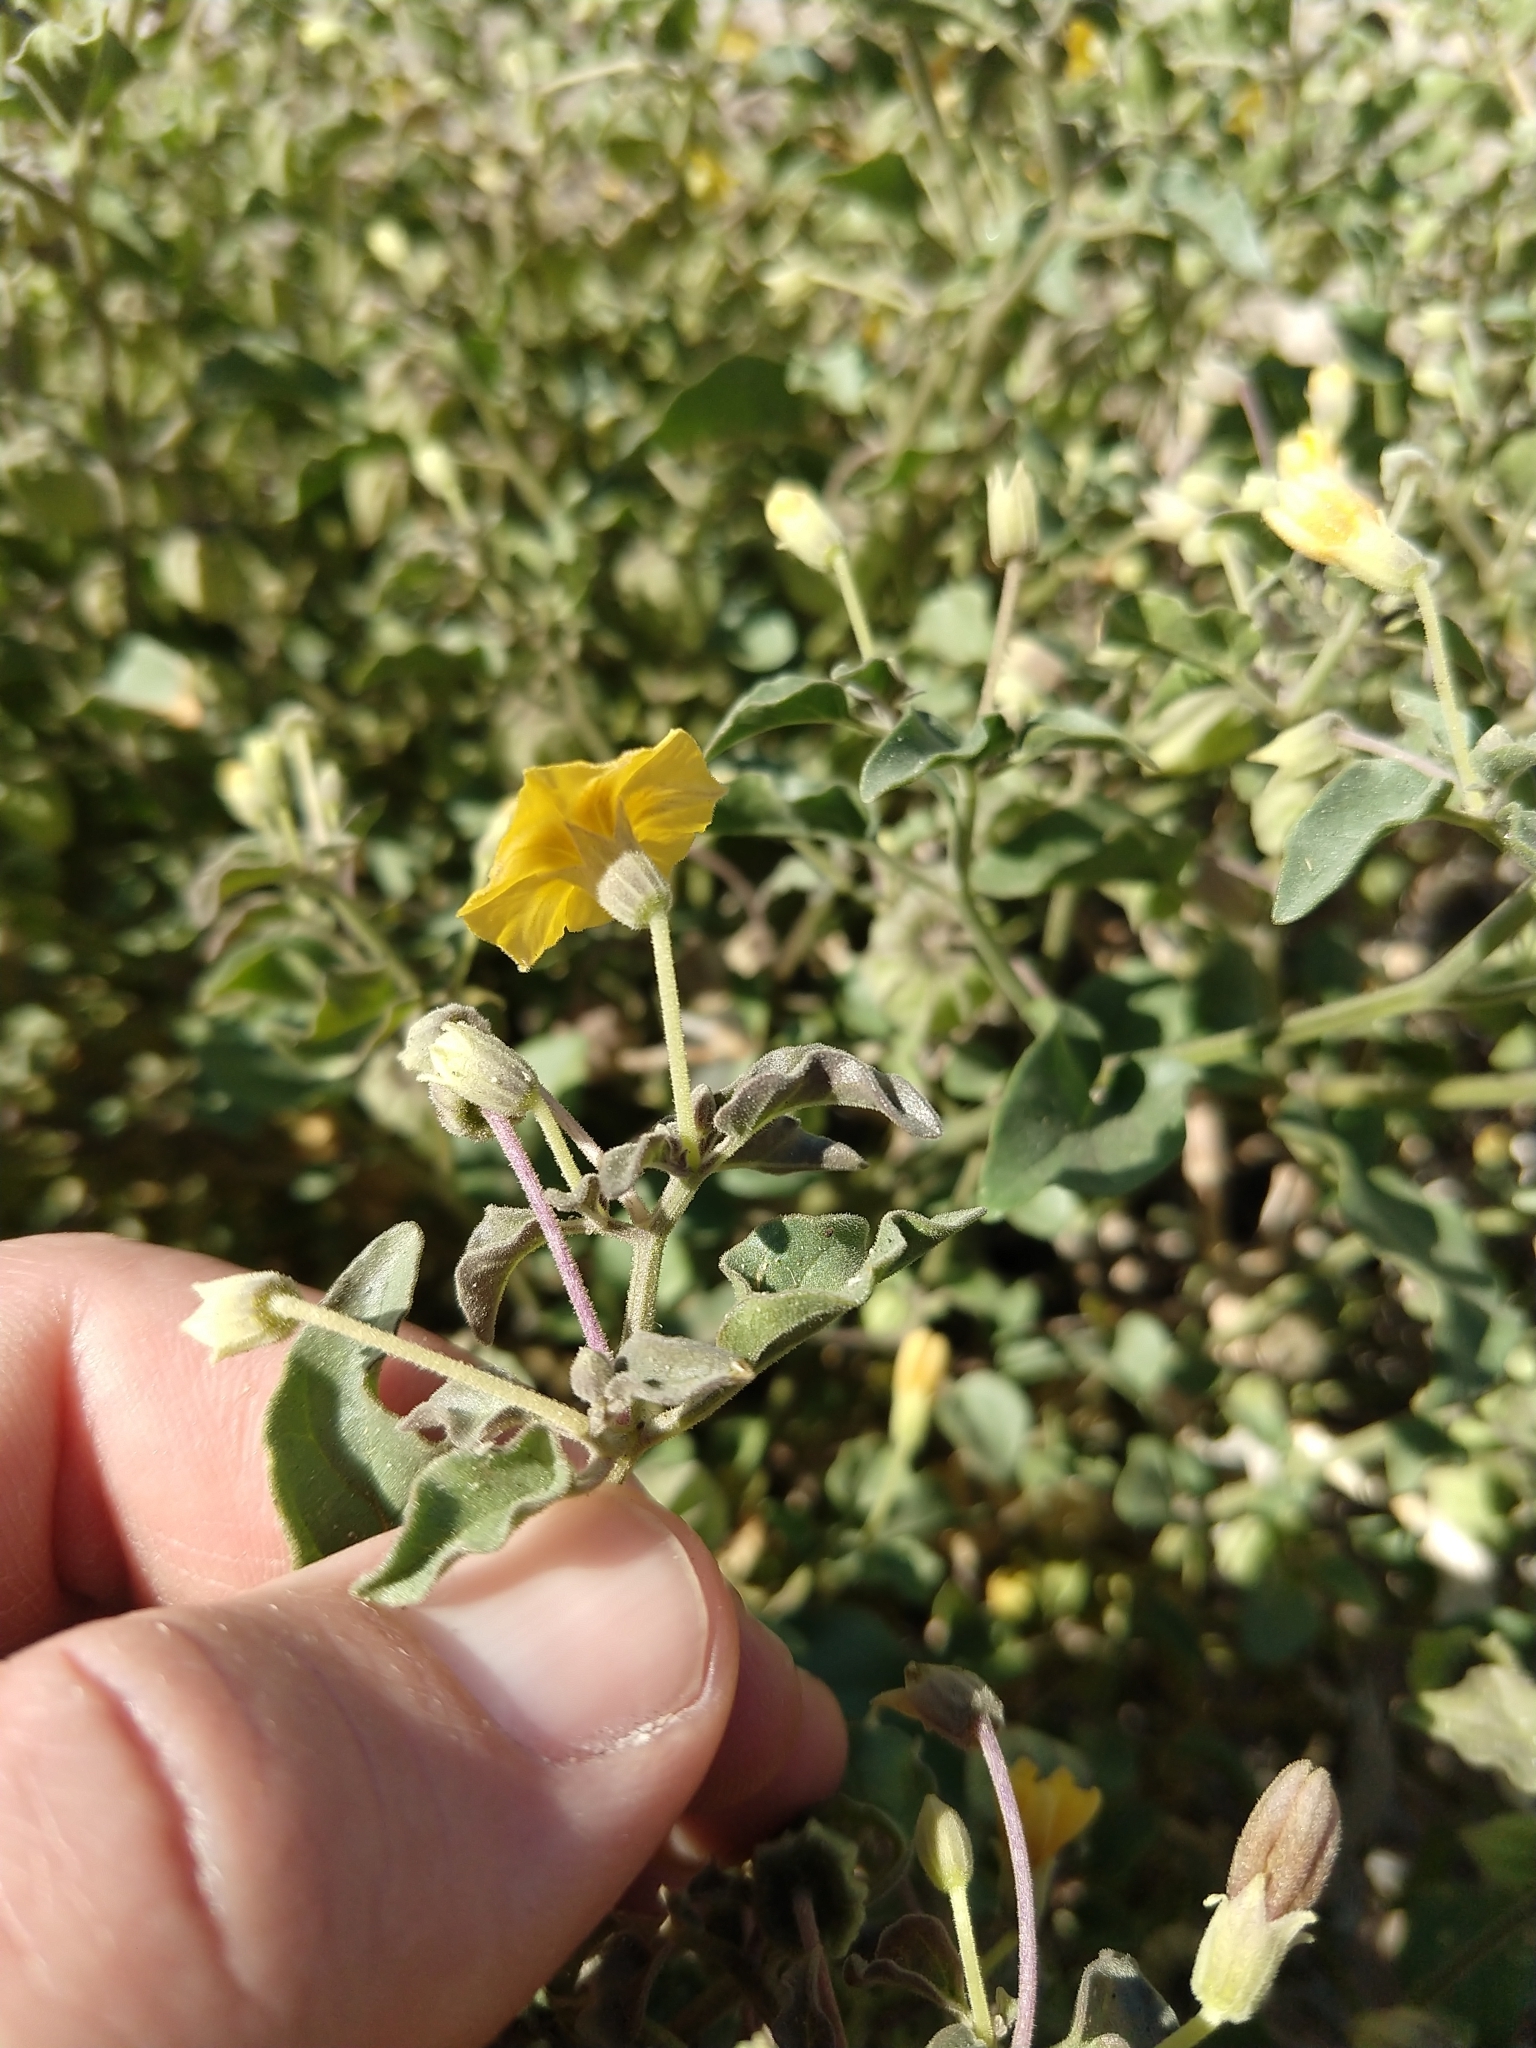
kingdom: Plantae
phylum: Tracheophyta
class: Magnoliopsida
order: Solanales
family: Solanaceae
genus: Physalis
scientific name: Physalis crassifolia
